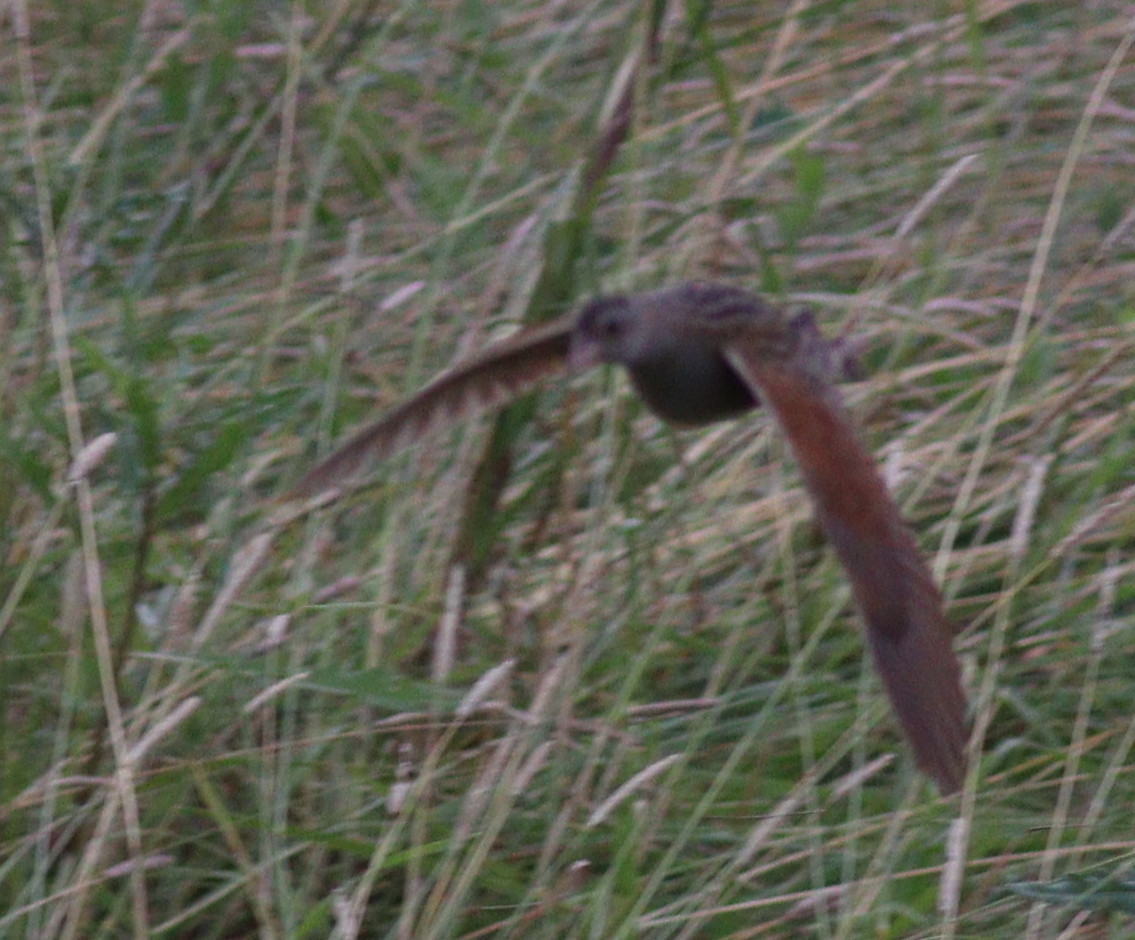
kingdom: Animalia
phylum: Chordata
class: Aves
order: Gruiformes
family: Rallidae
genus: Crex
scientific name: Crex crex
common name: Corn crake
